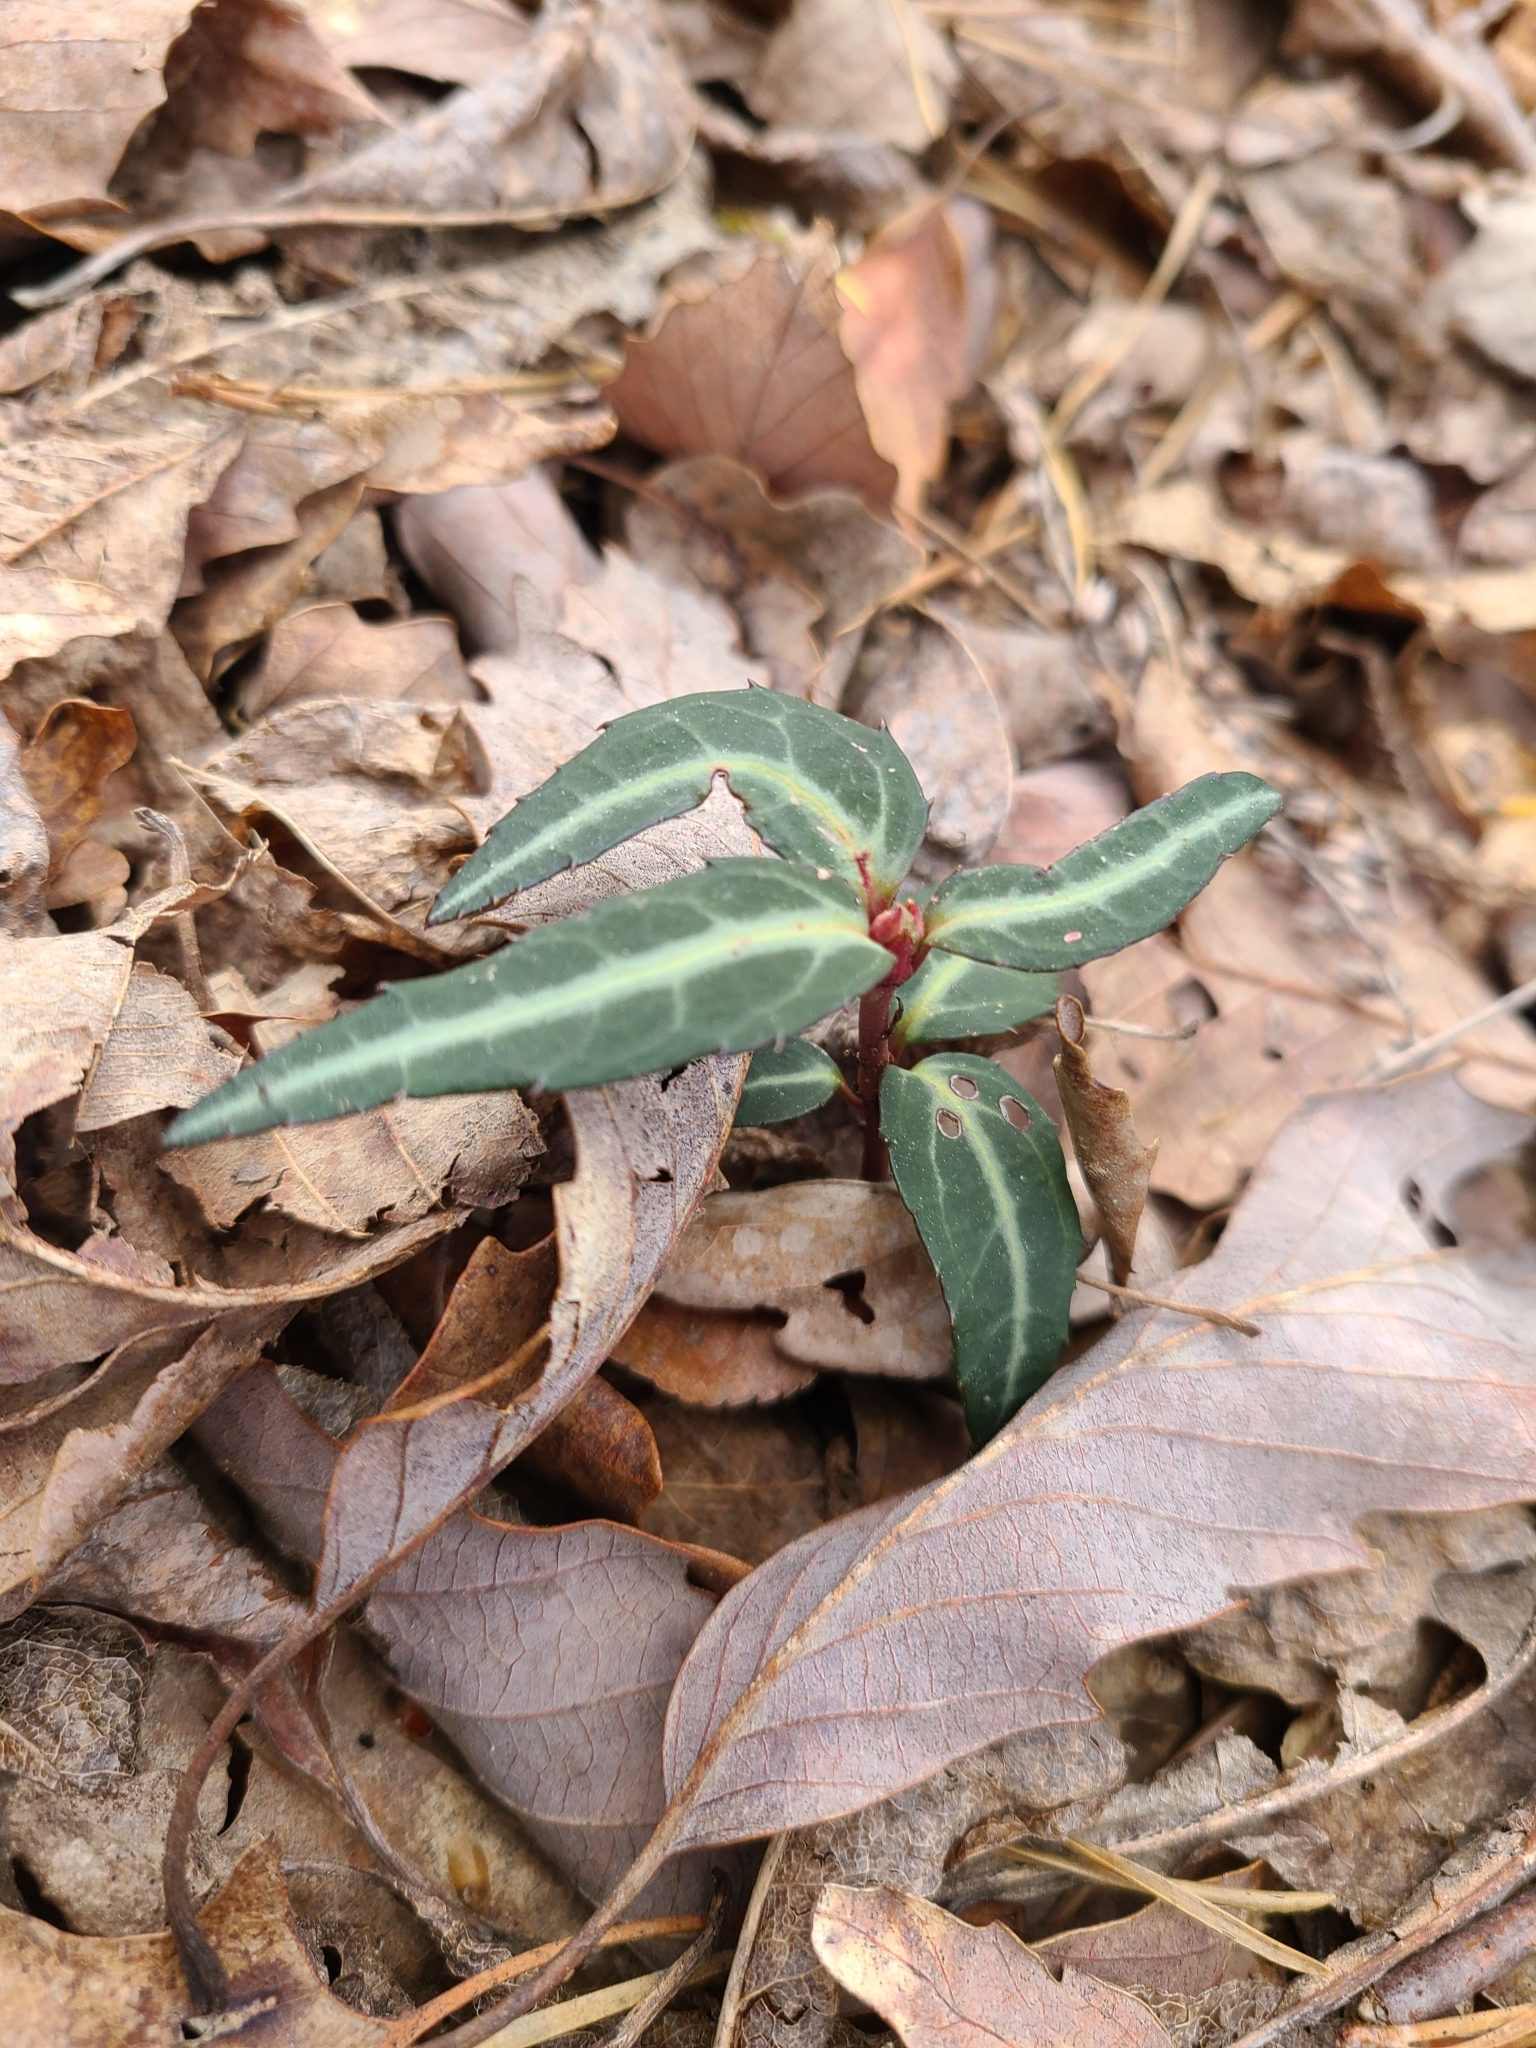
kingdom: Plantae
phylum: Tracheophyta
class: Magnoliopsida
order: Ericales
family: Ericaceae
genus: Chimaphila
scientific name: Chimaphila maculata
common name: Spotted pipsissewa
